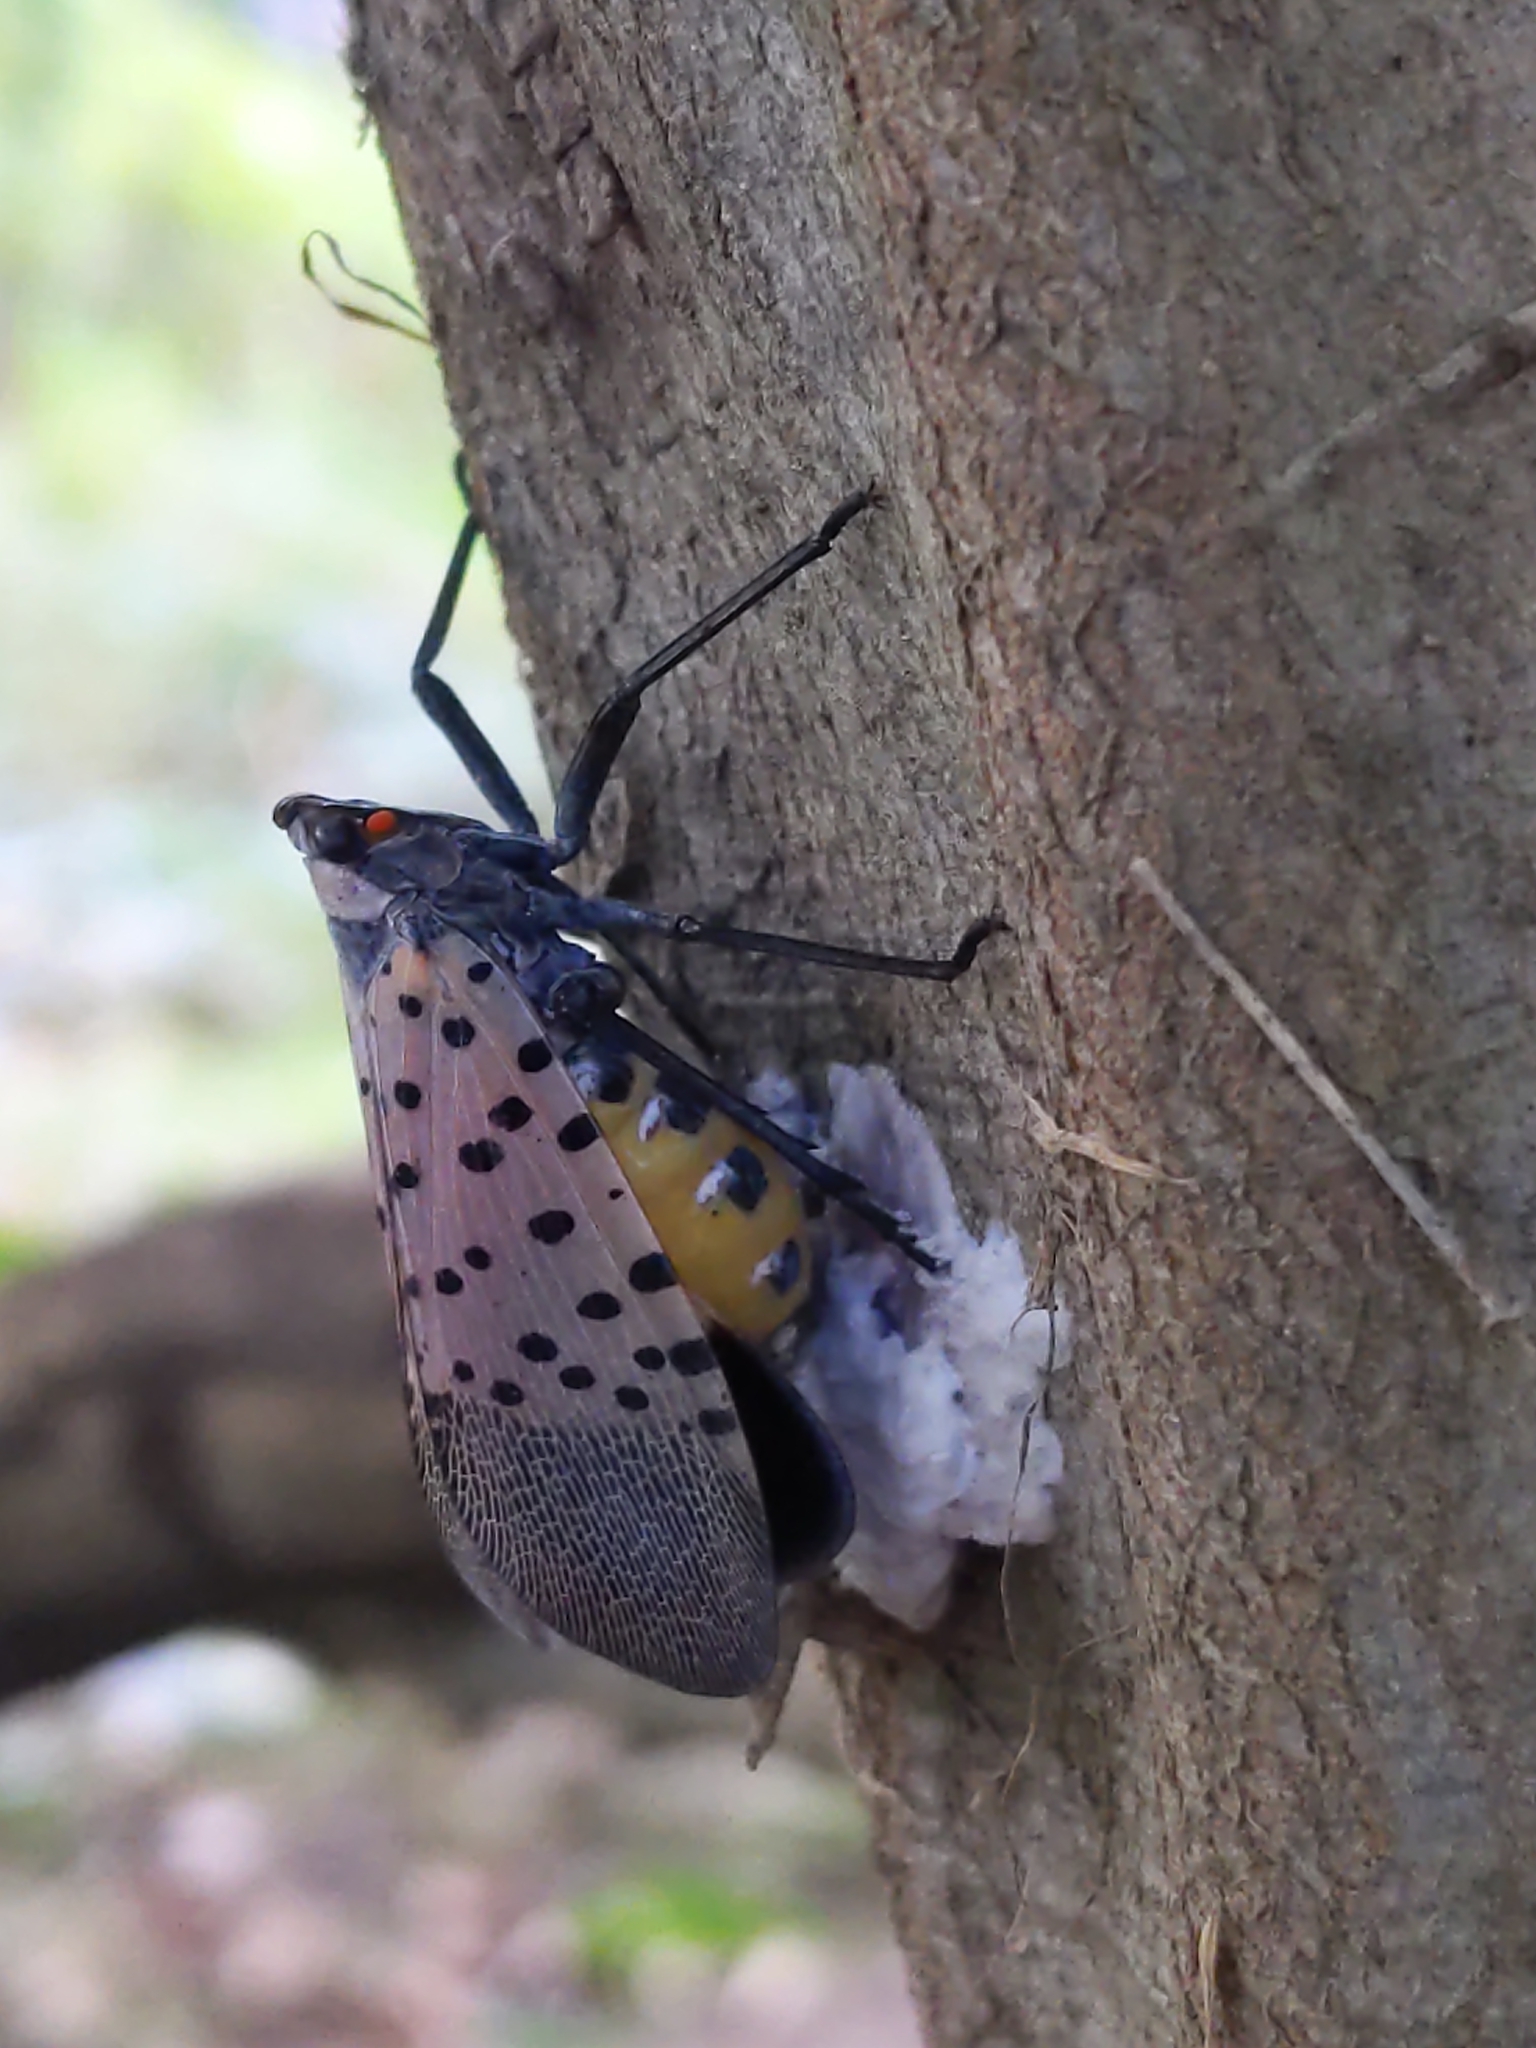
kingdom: Animalia
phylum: Arthropoda
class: Insecta
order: Hemiptera
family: Fulgoridae
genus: Lycorma
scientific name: Lycorma delicatula
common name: Spotted lanternfly
